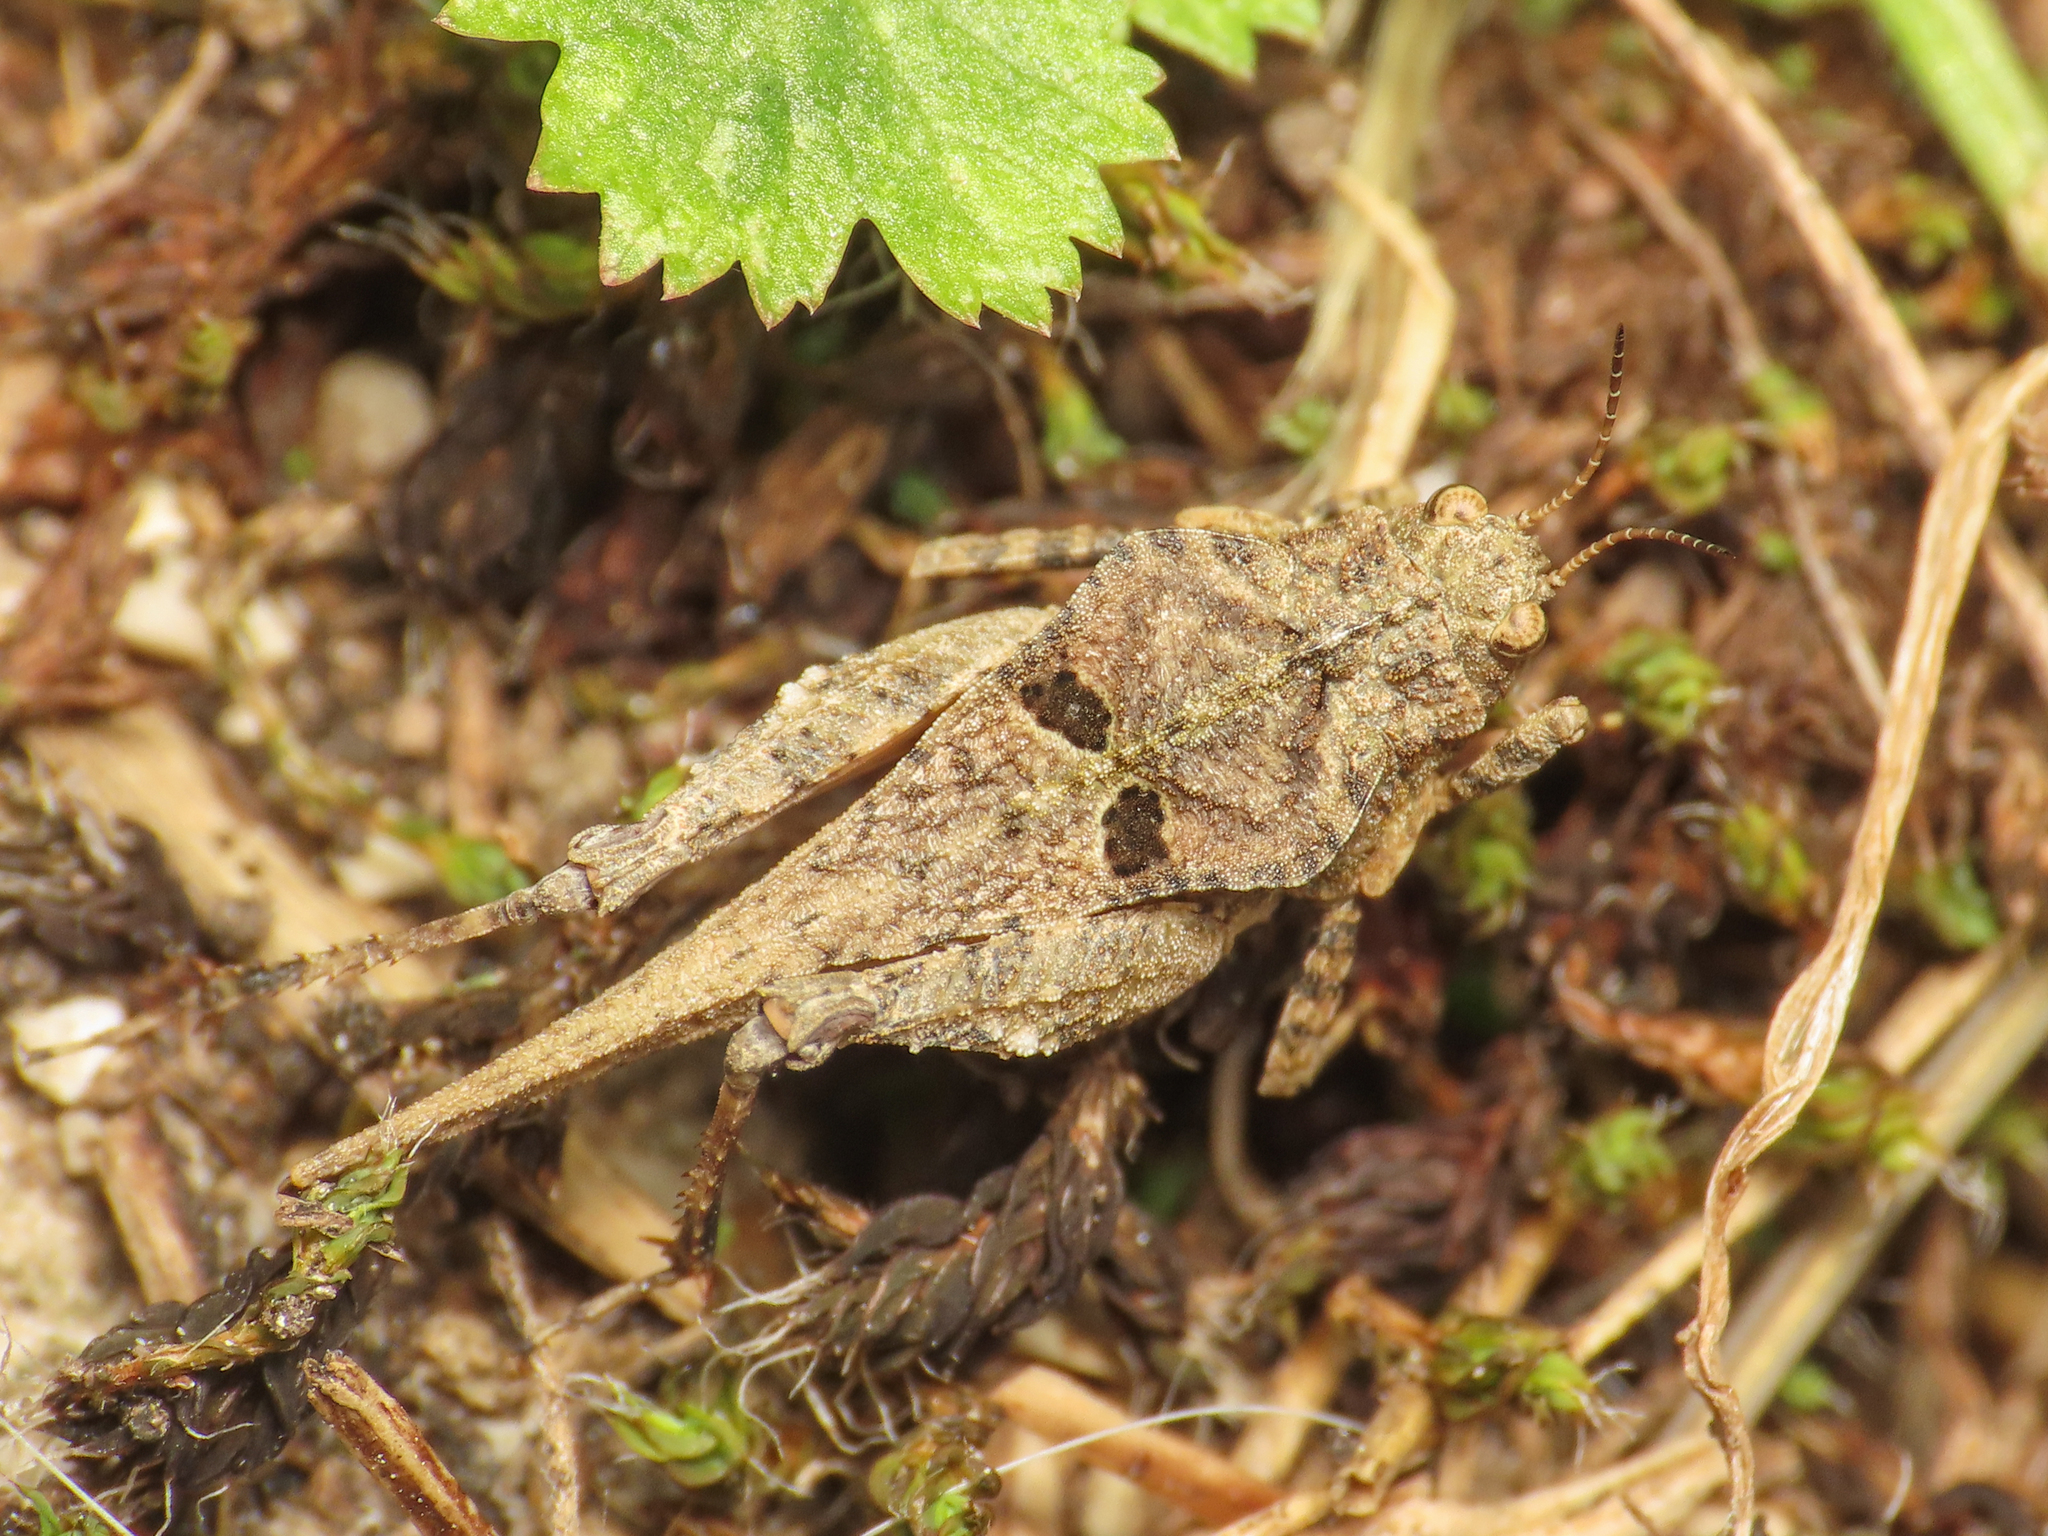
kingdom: Animalia
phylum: Arthropoda
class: Insecta
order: Orthoptera
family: Tetrigidae
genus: Tetrix
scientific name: Tetrix depressa
